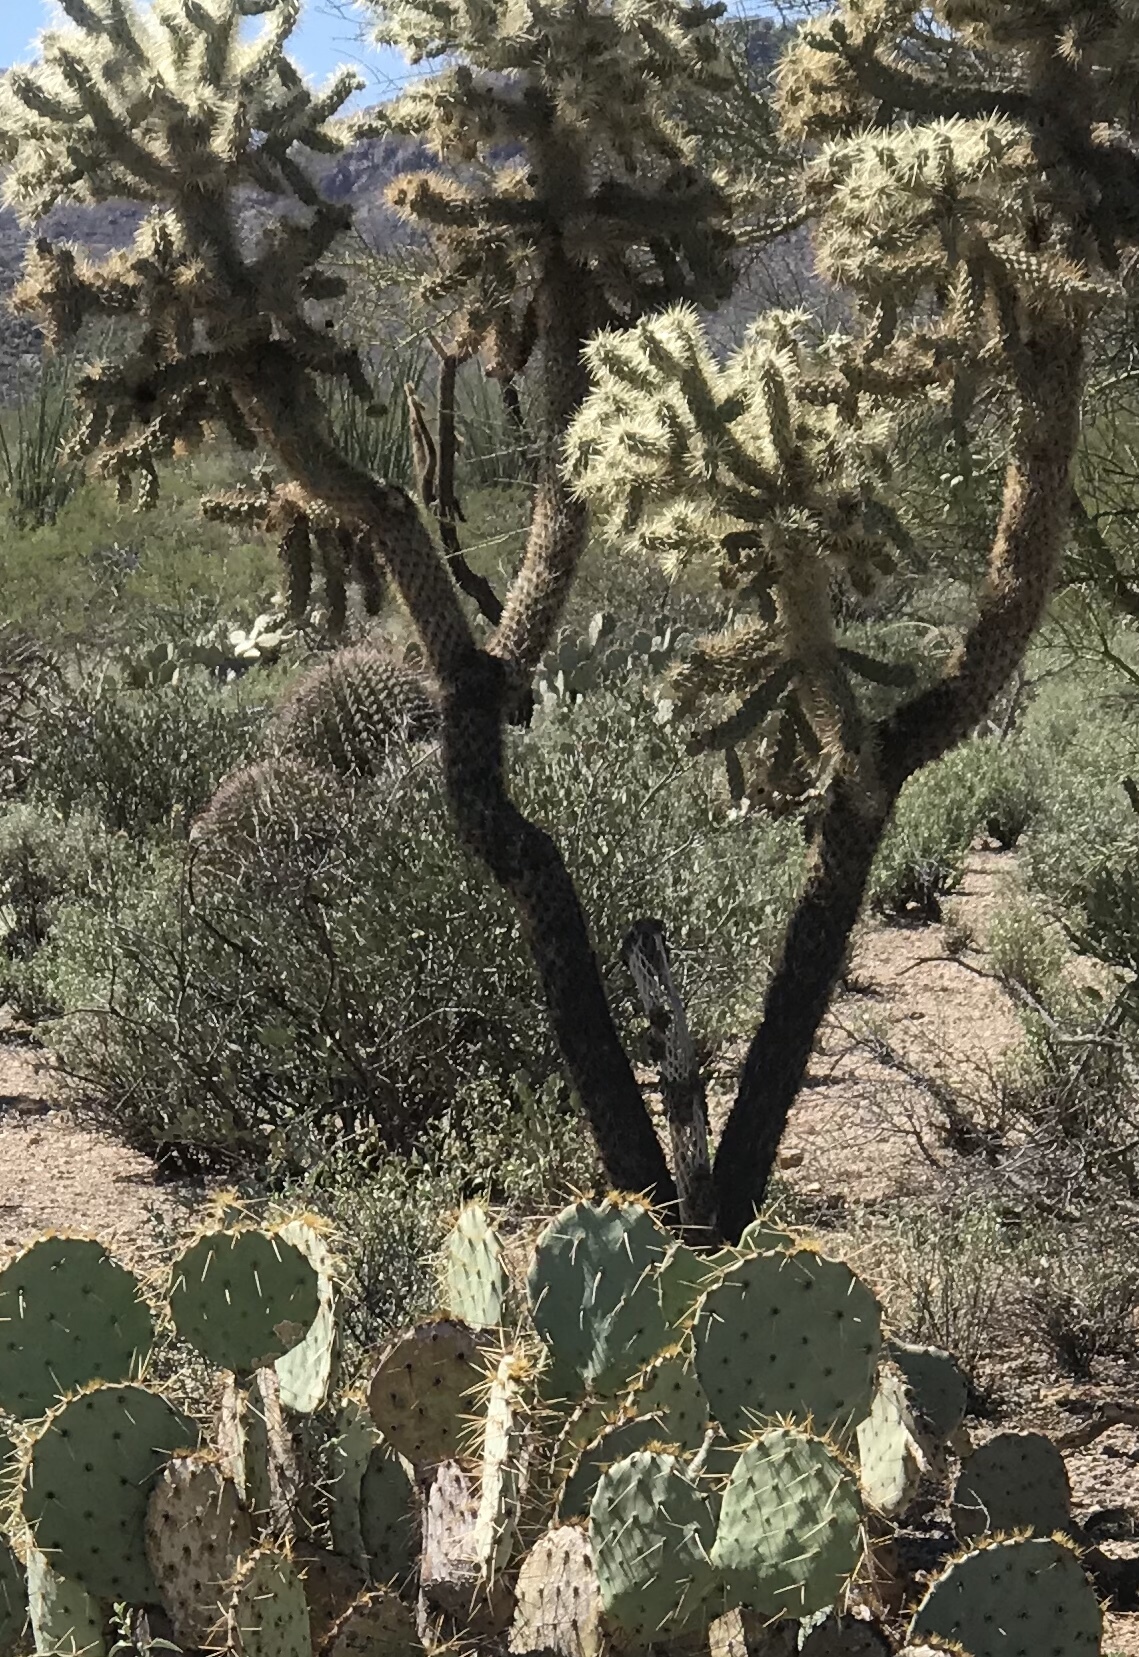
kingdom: Plantae
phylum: Tracheophyta
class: Magnoliopsida
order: Caryophyllales
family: Cactaceae
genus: Cylindropuntia
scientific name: Cylindropuntia fulgida
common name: Jumping cholla
